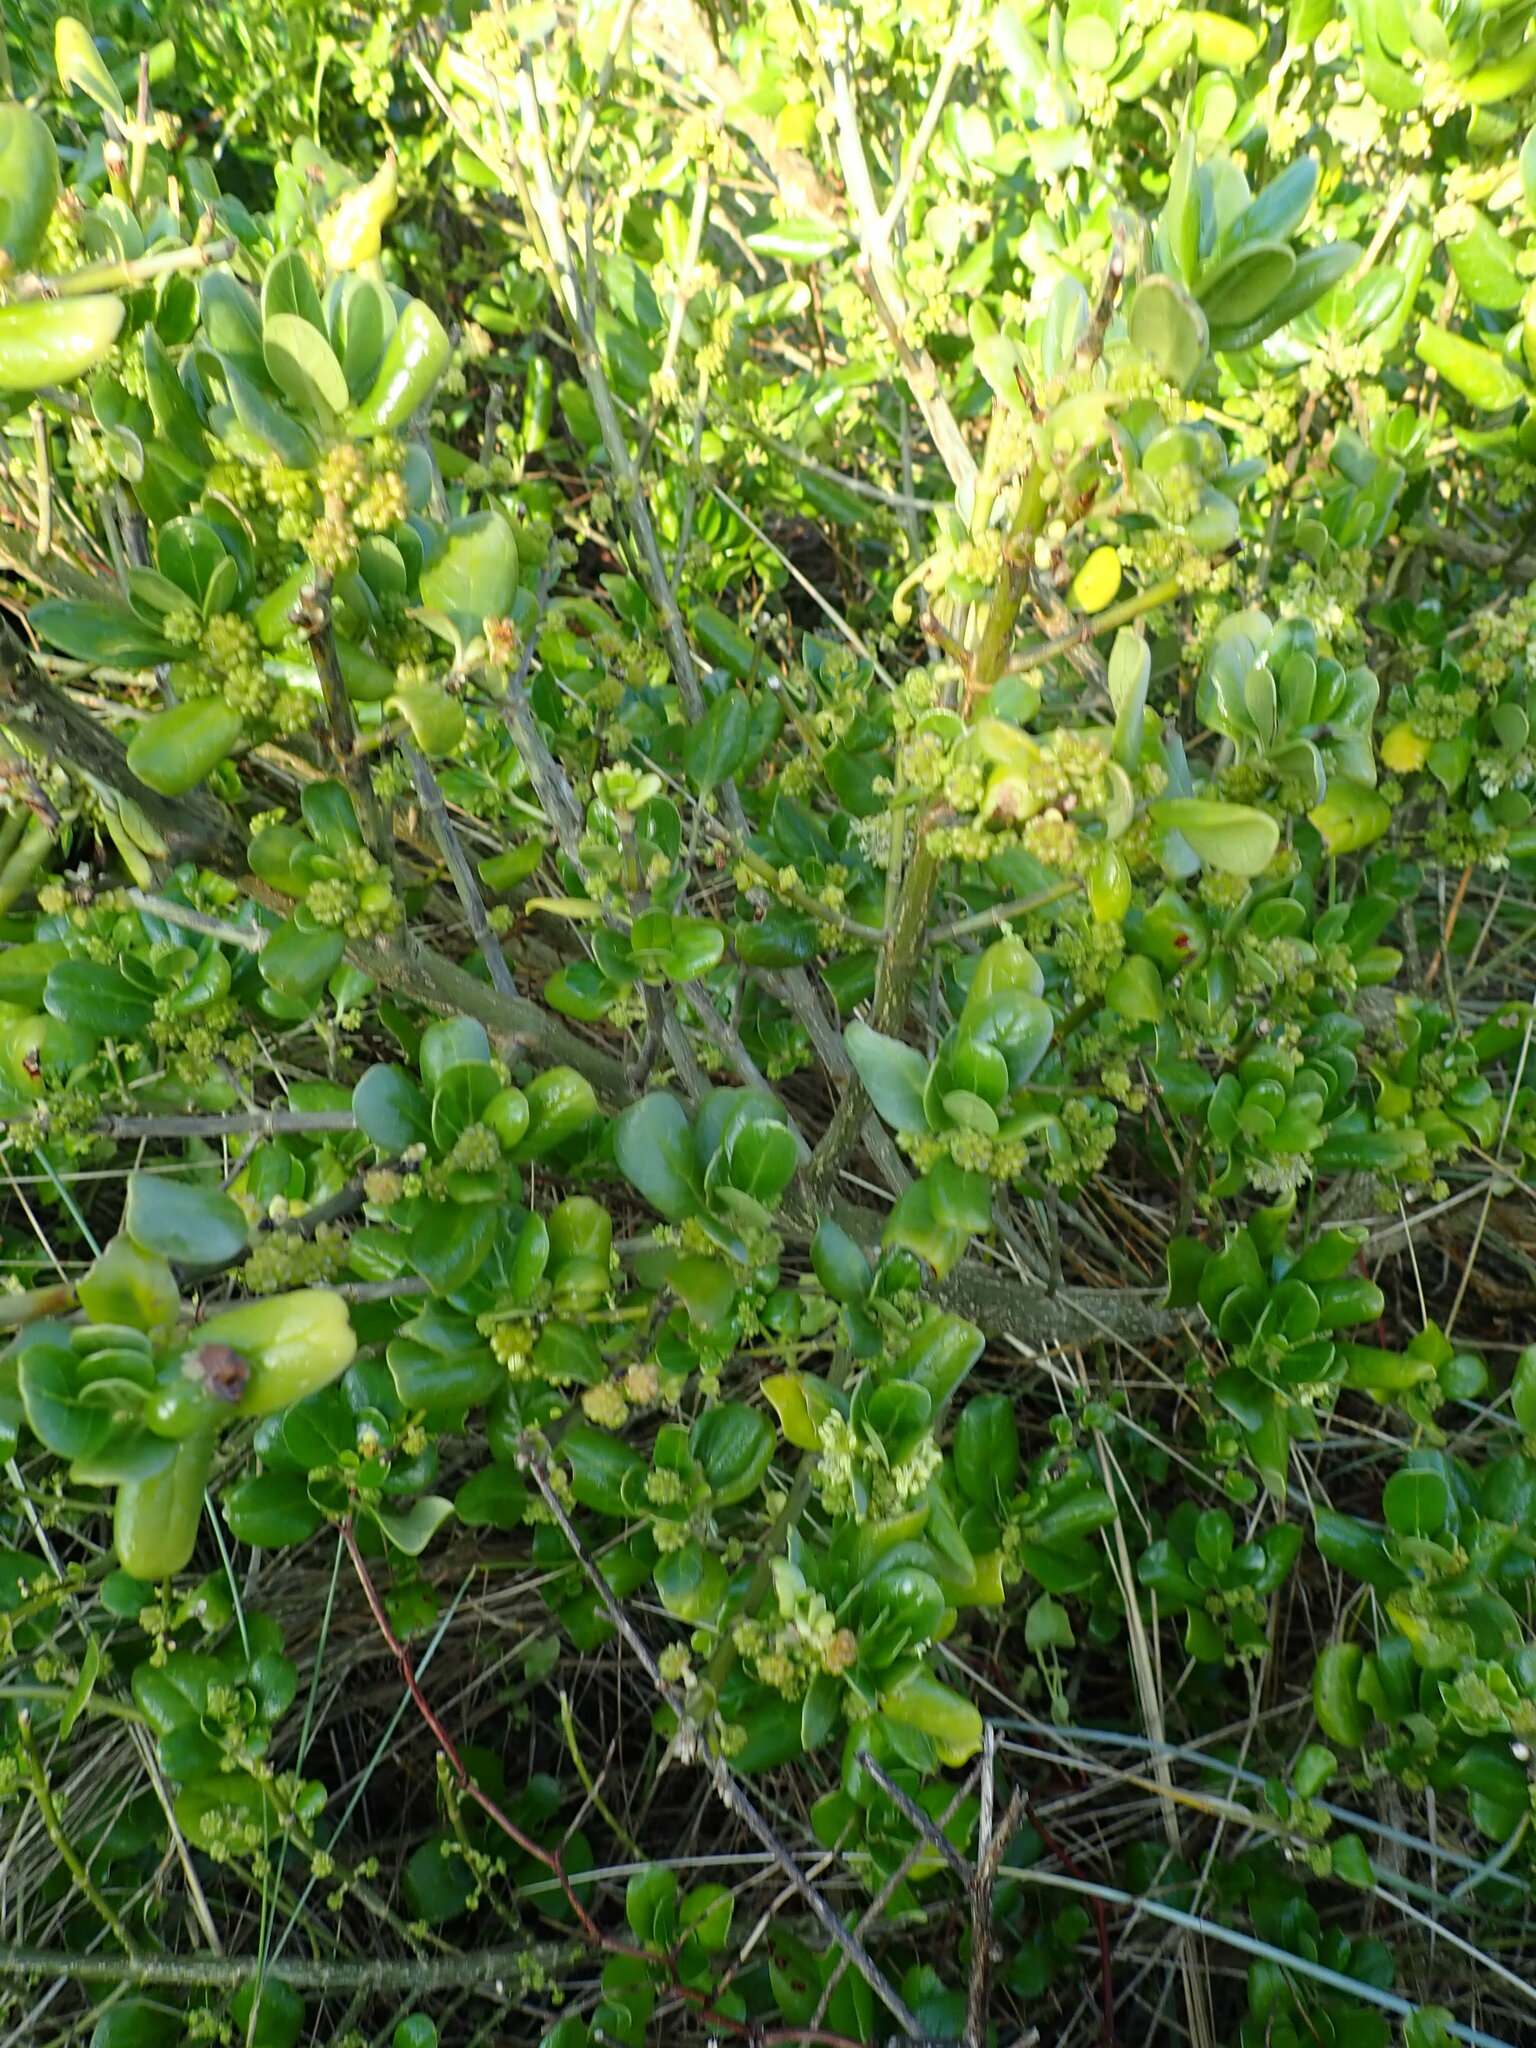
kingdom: Plantae
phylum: Tracheophyta
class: Magnoliopsida
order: Gentianales
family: Rubiaceae
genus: Coprosma
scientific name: Coprosma repens
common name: Tree bedstraw
